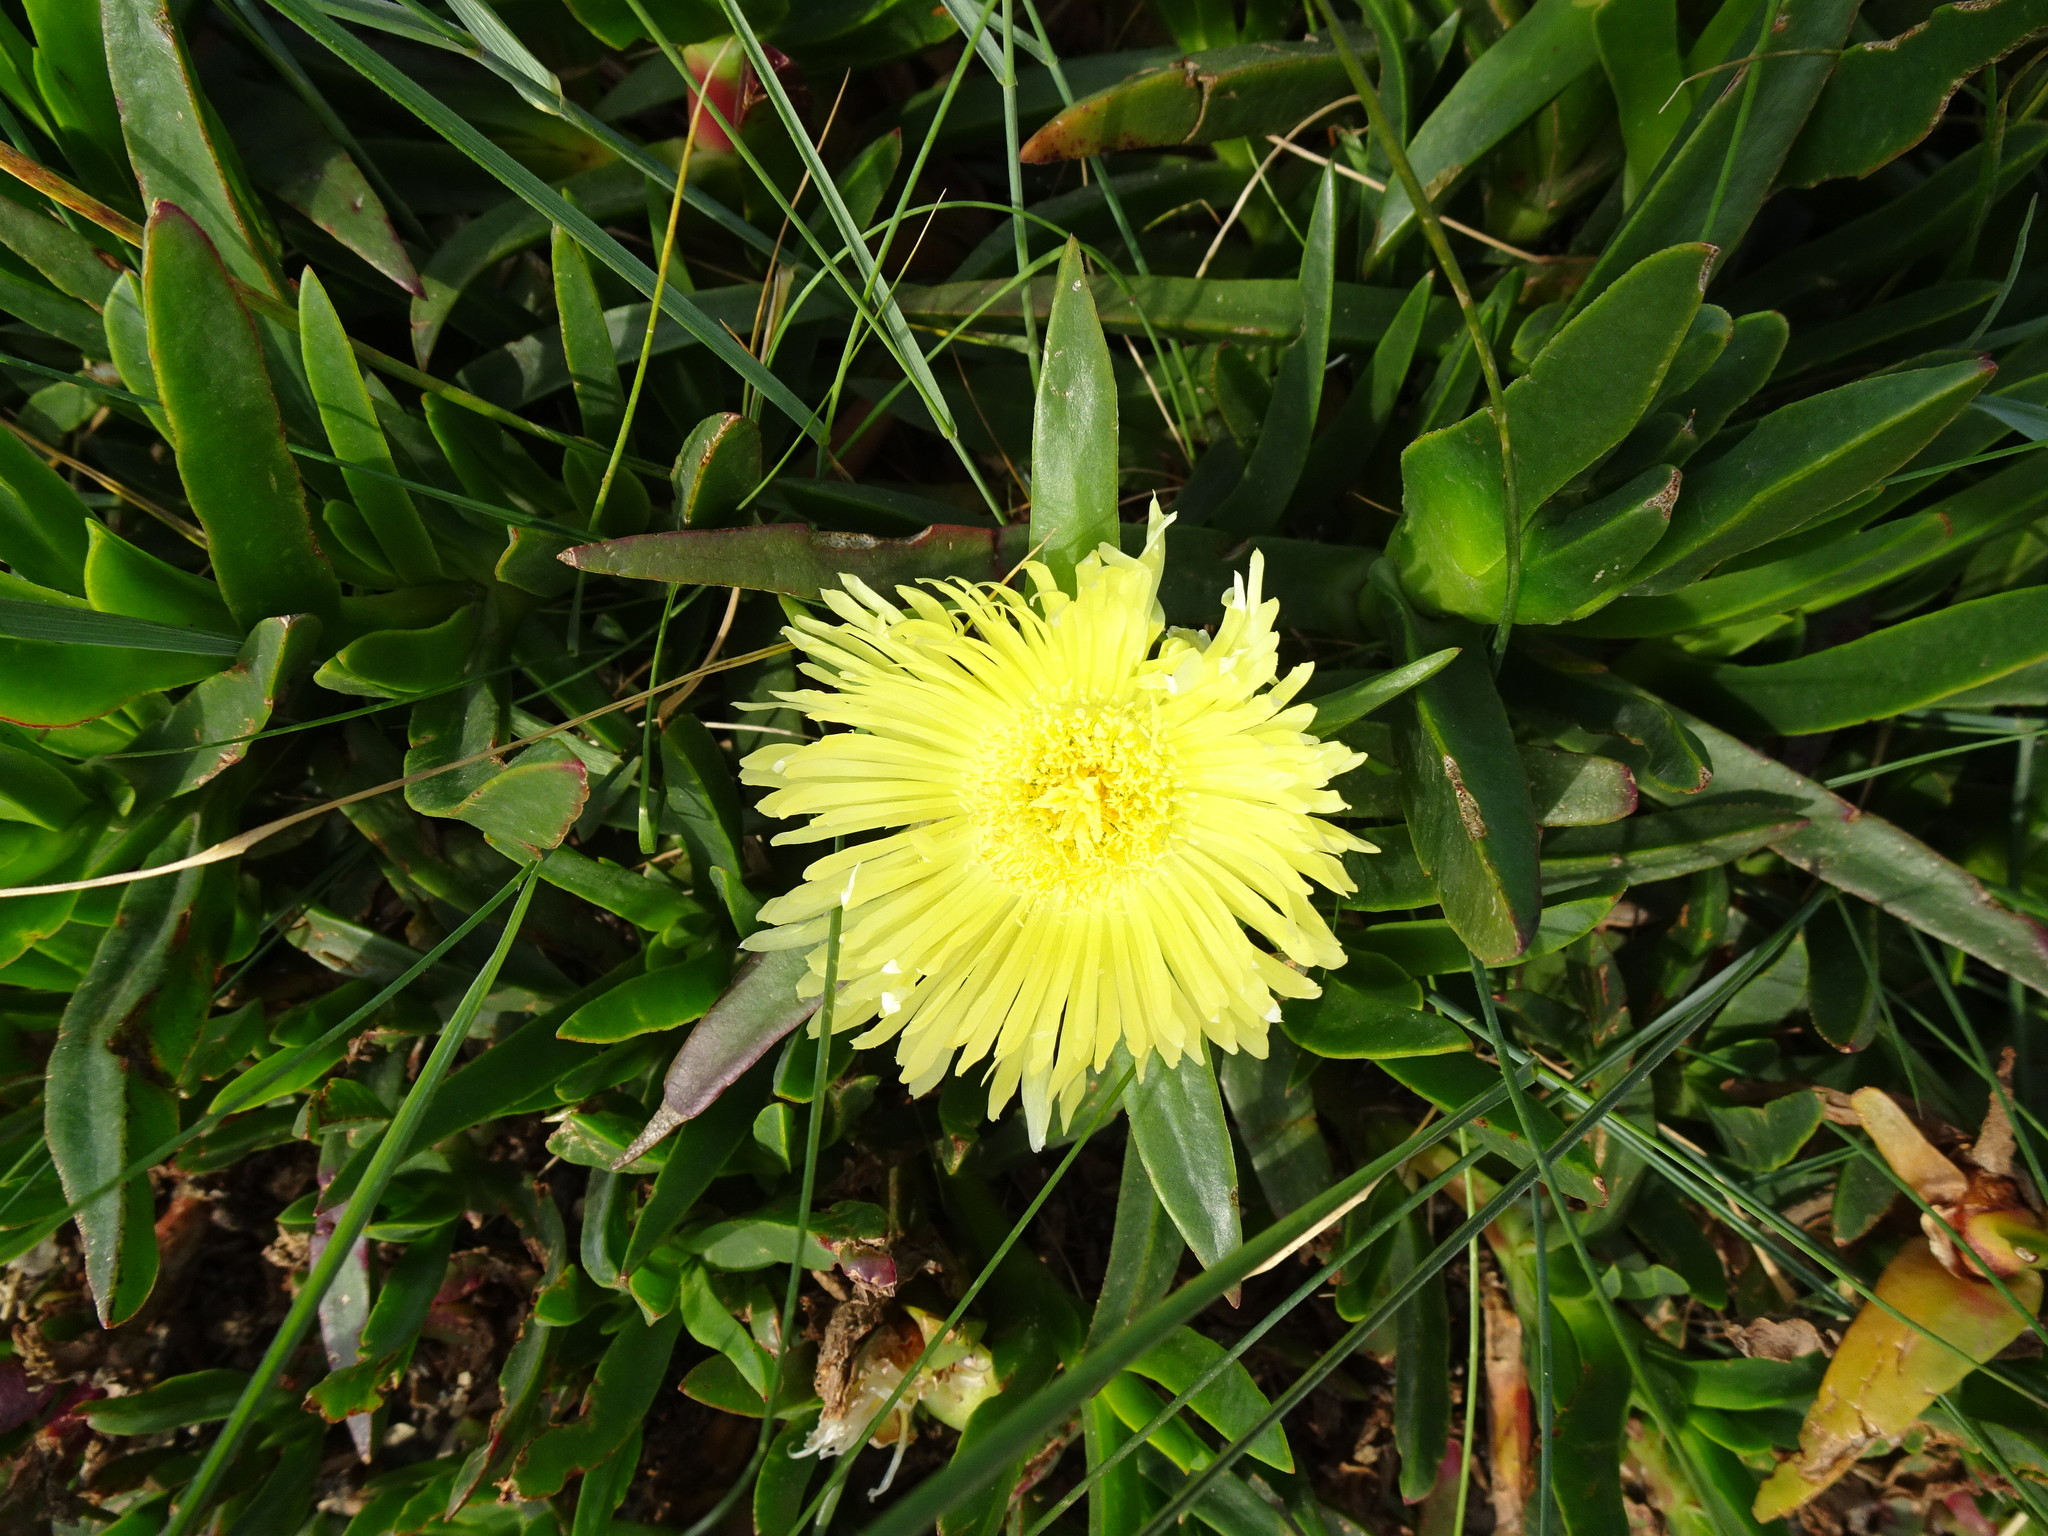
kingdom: Plantae
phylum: Tracheophyta
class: Magnoliopsida
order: Caryophyllales
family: Aizoaceae
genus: Carpobrotus
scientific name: Carpobrotus edulis
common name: Hottentot-fig
